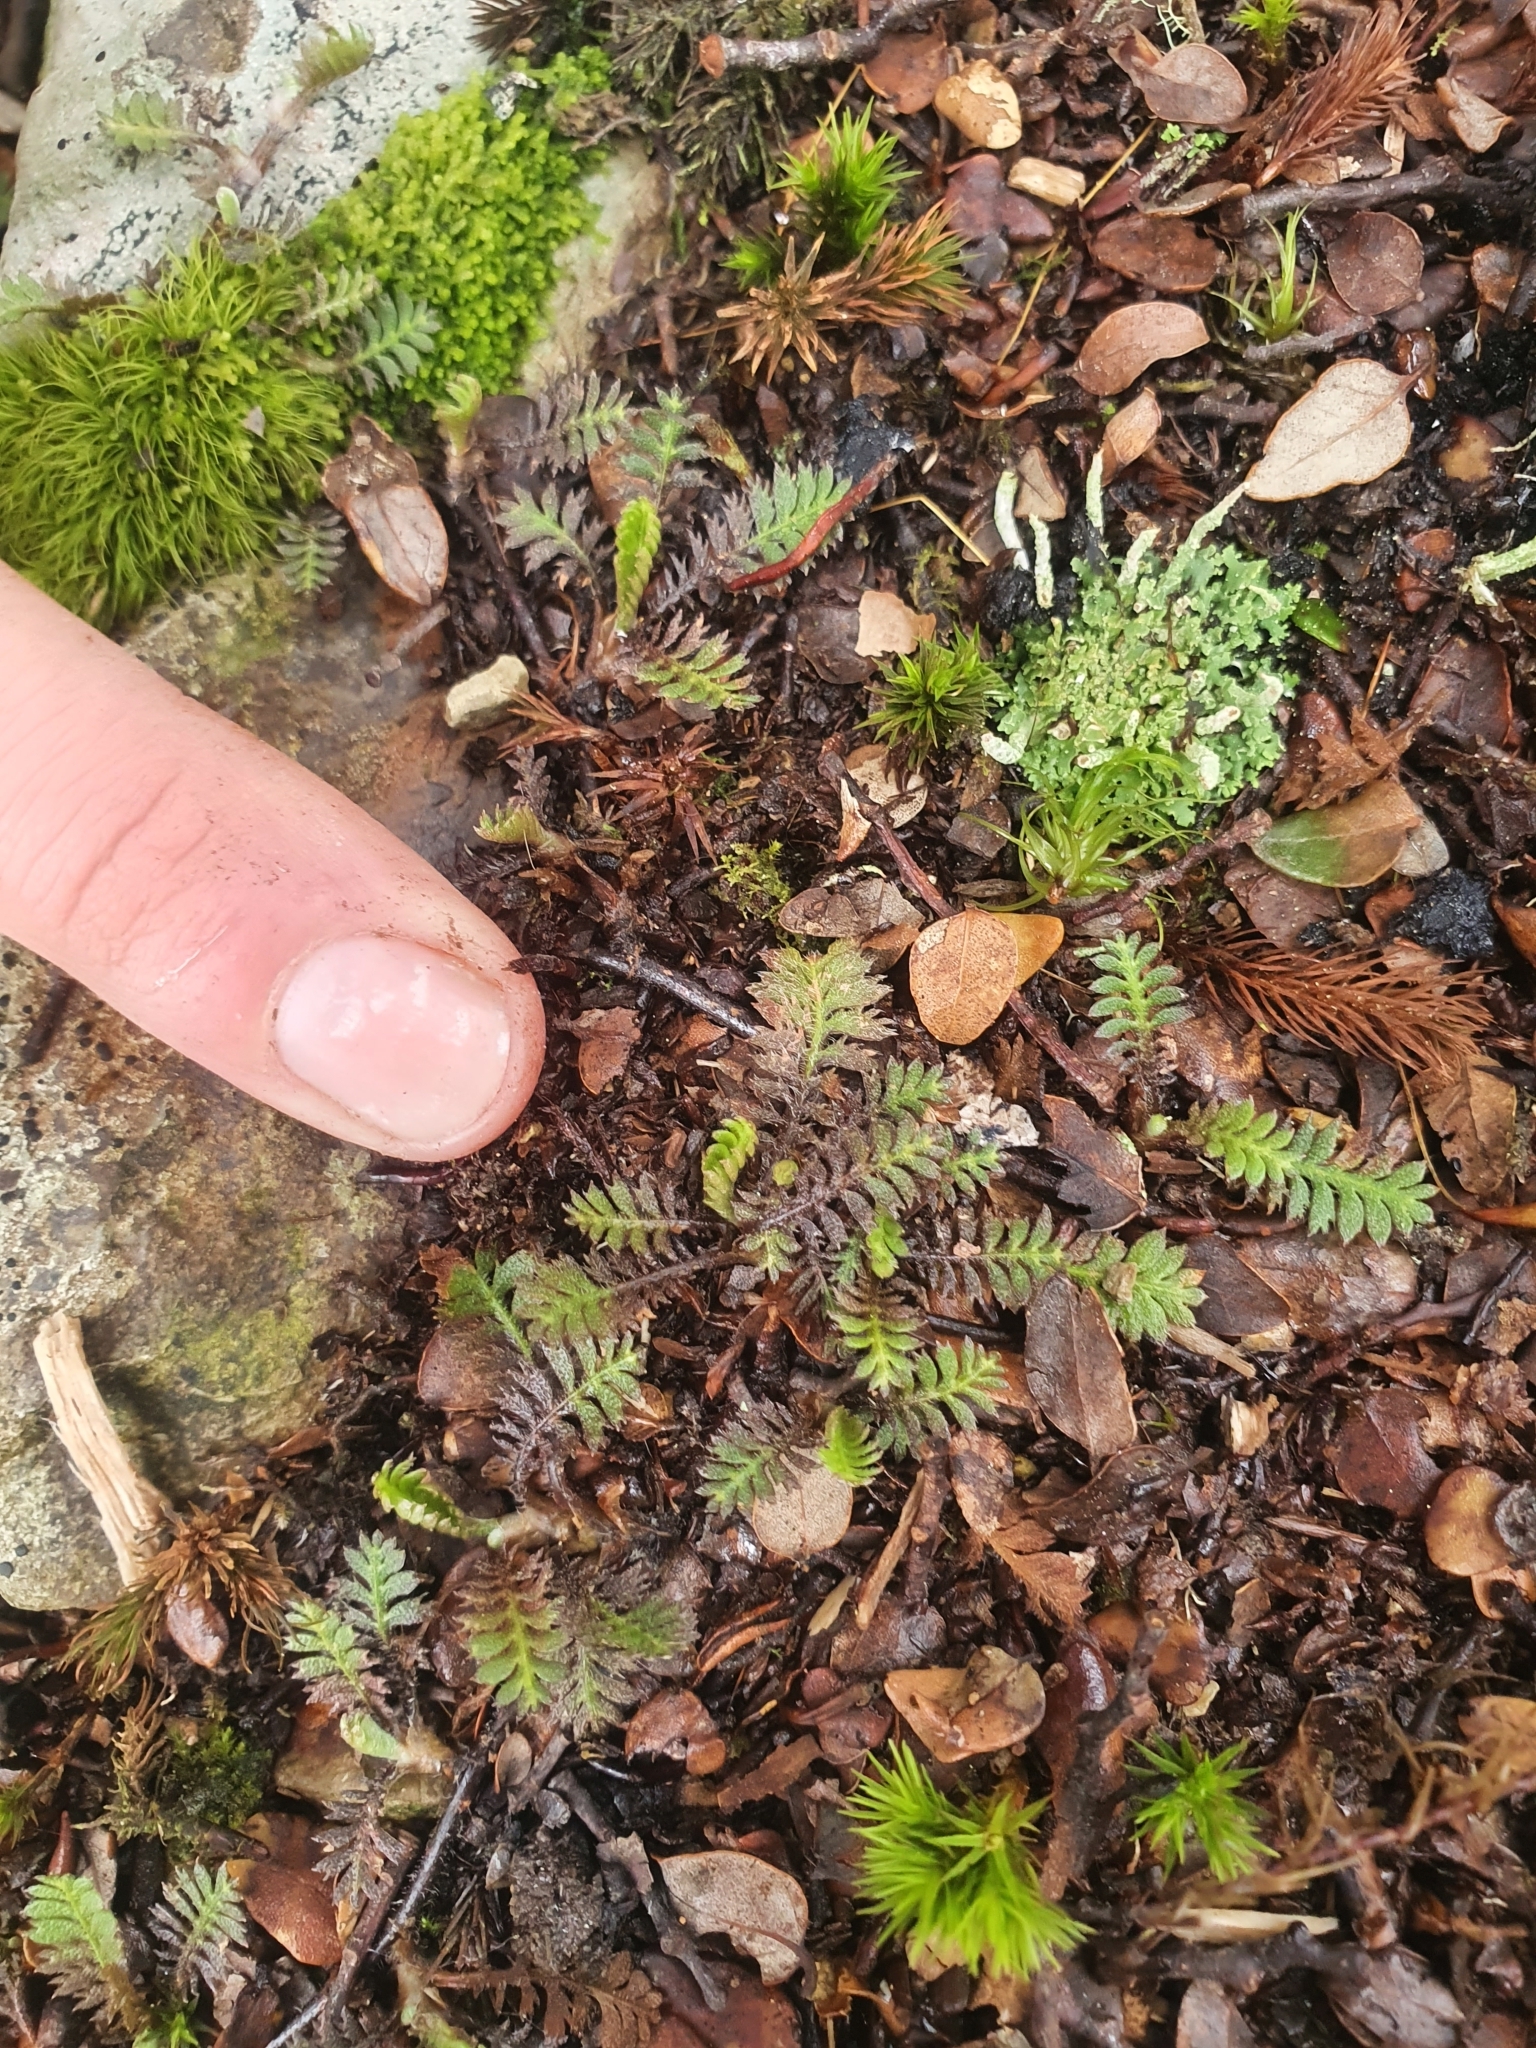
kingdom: Plantae
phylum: Tracheophyta
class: Magnoliopsida
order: Asterales
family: Asteraceae
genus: Leptinella
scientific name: Leptinella squalida
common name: New zealand brass-buttons
